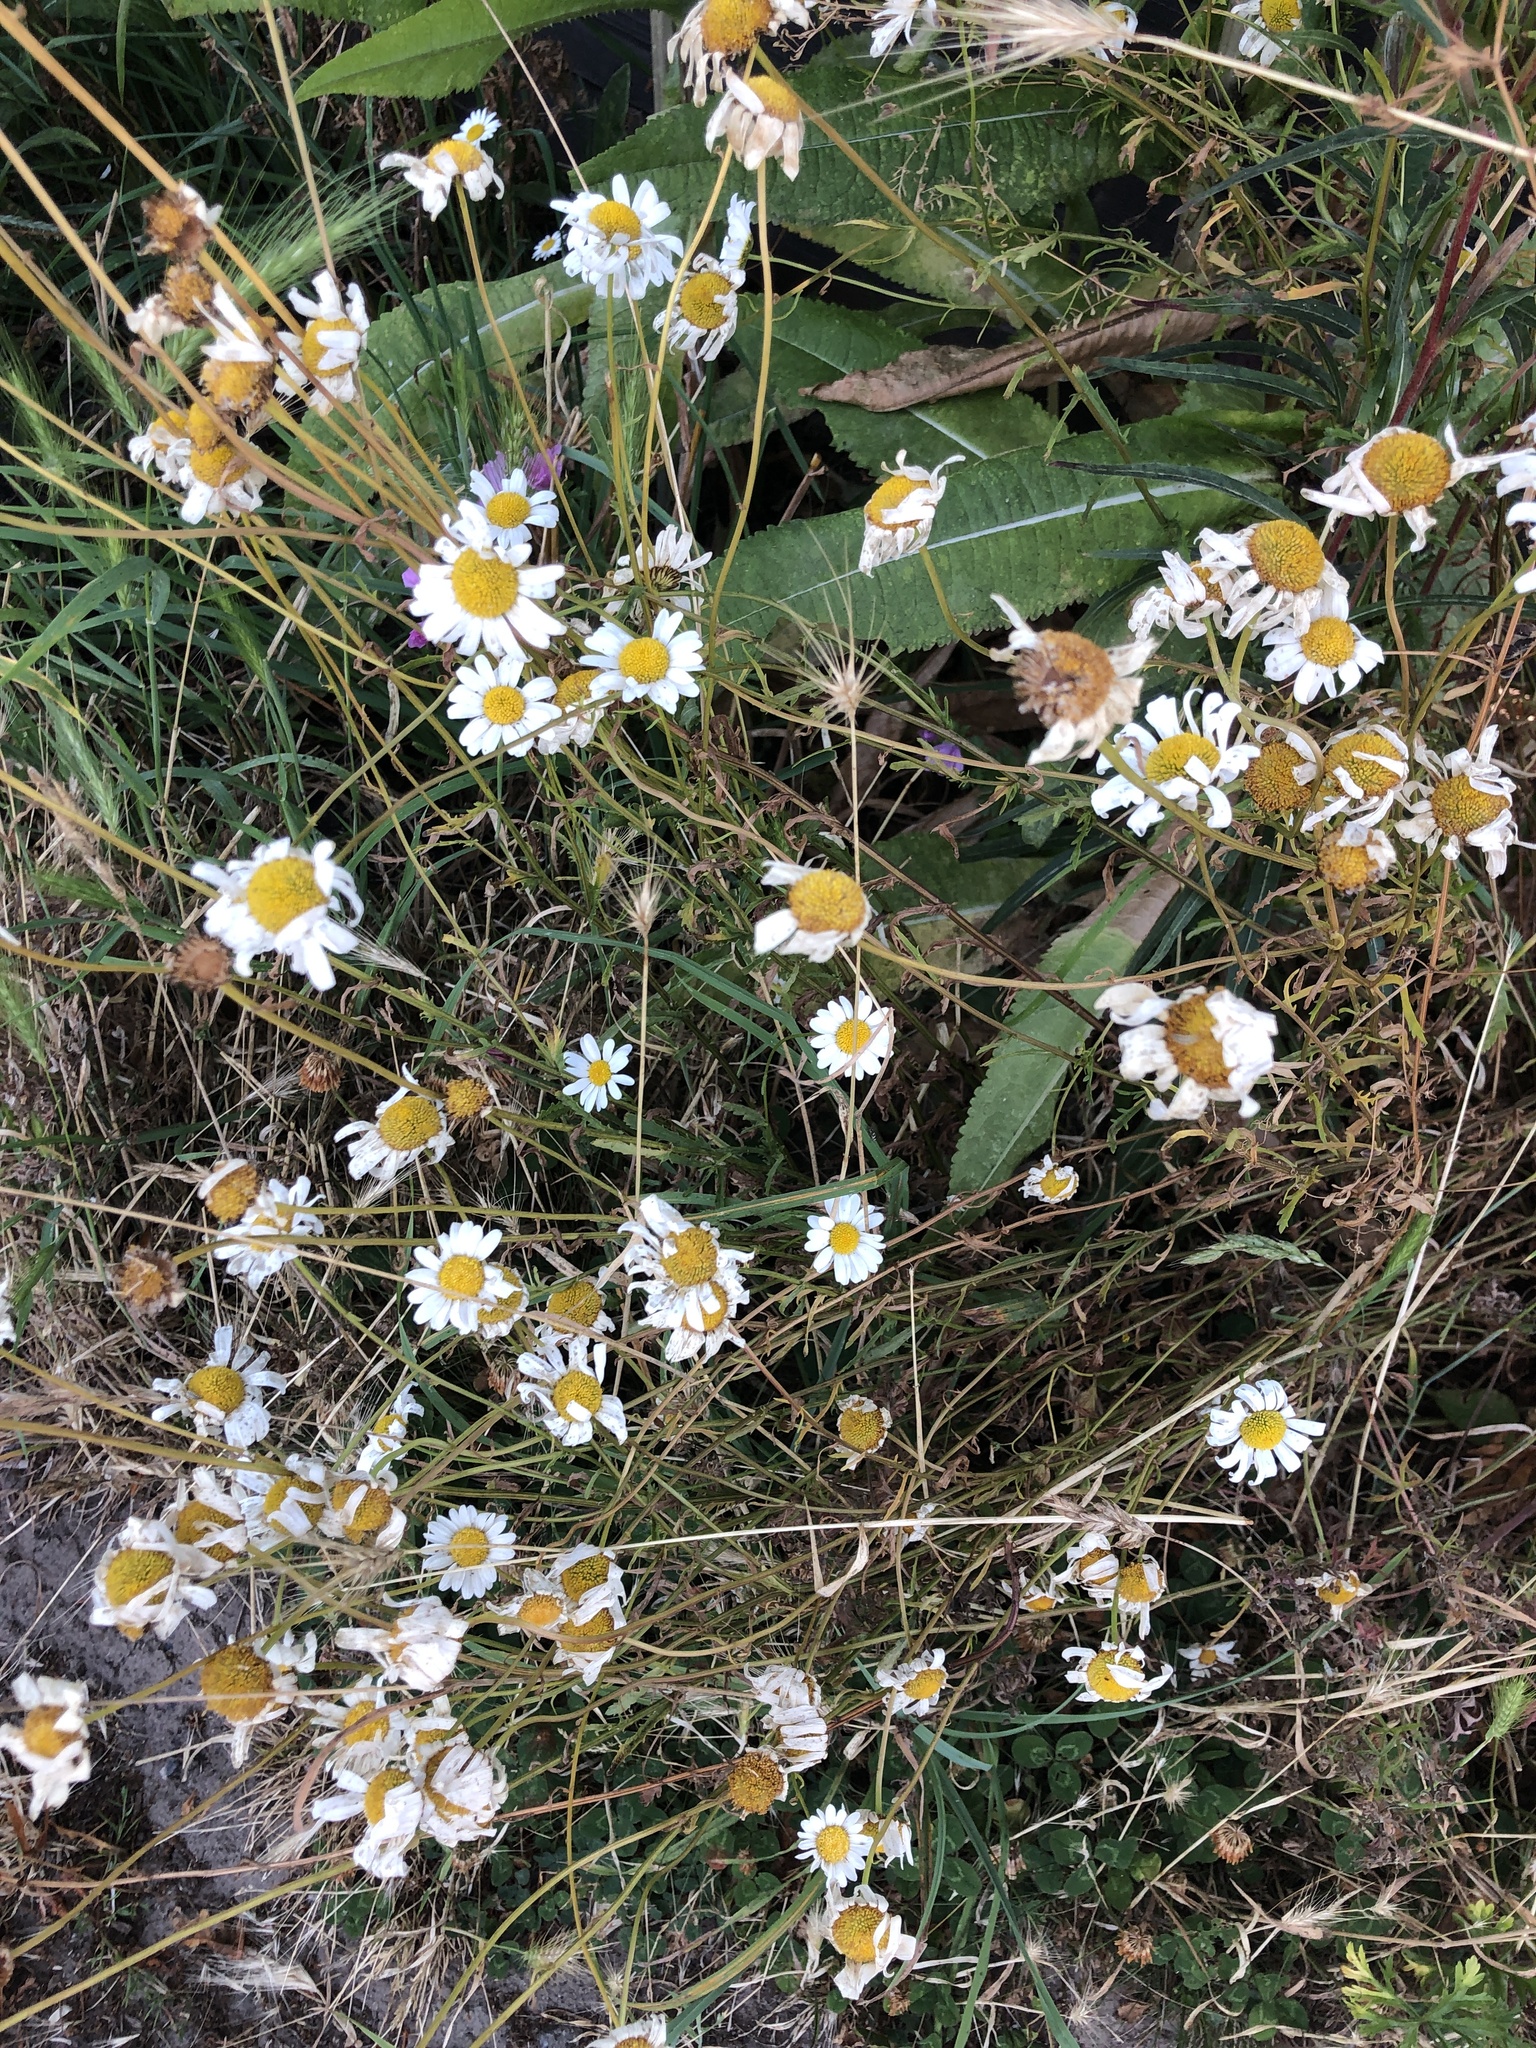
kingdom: Plantae
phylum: Tracheophyta
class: Magnoliopsida
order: Asterales
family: Asteraceae
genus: Leucanthemum
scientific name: Leucanthemum vulgare
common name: Oxeye daisy
